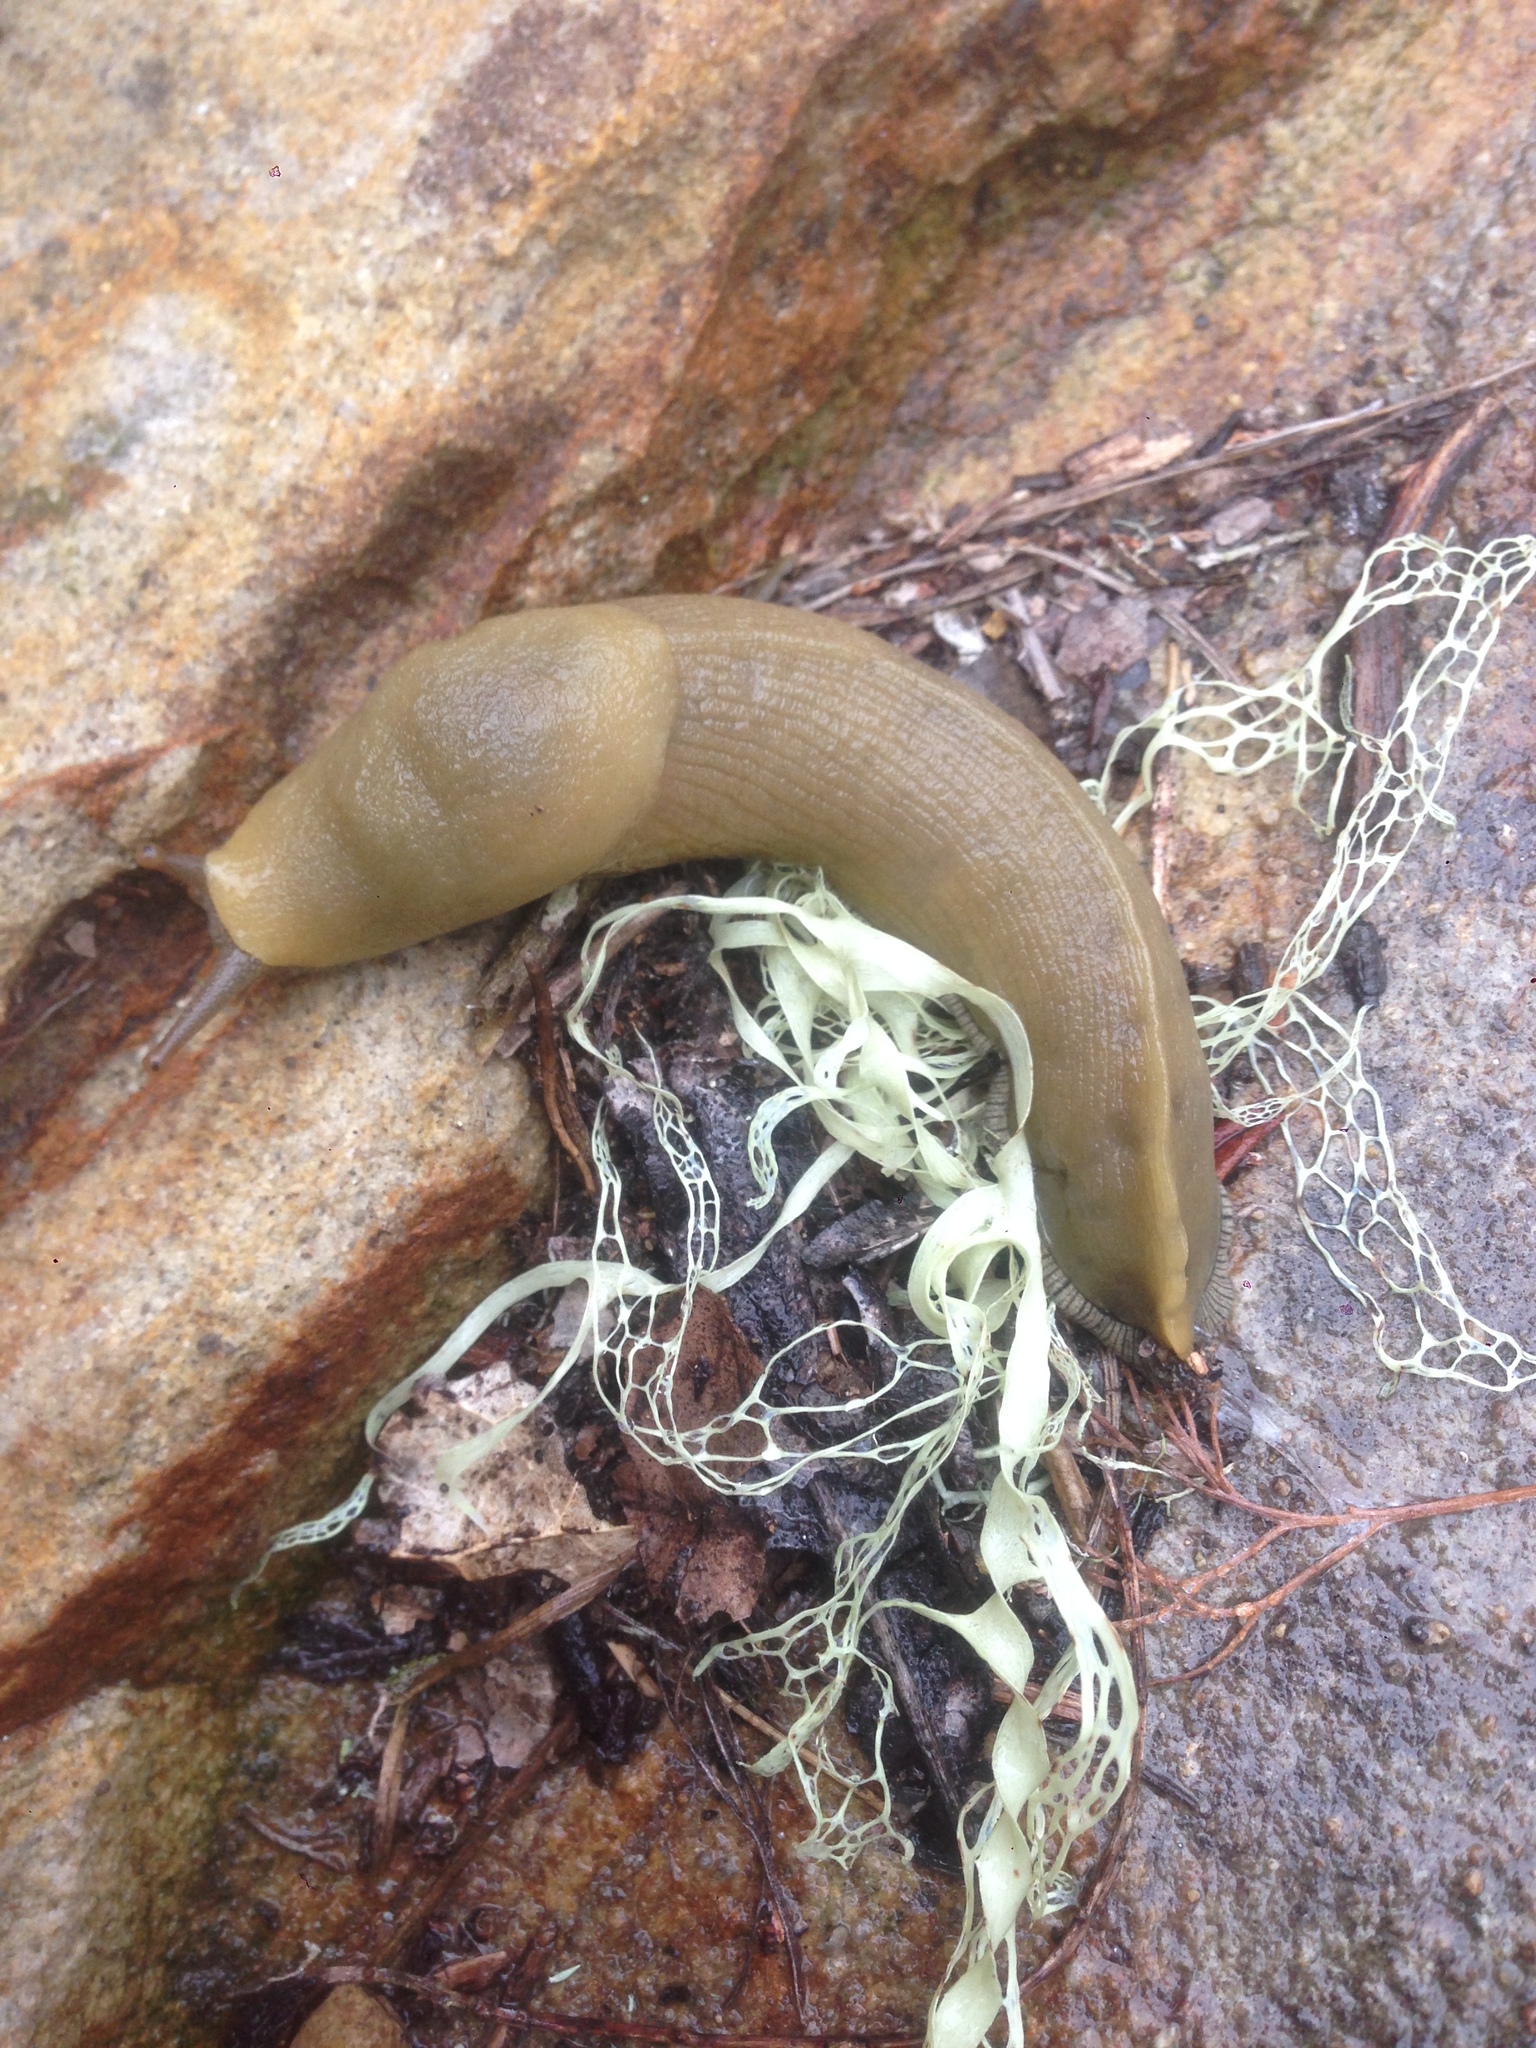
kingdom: Animalia
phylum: Mollusca
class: Gastropoda
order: Stylommatophora
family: Ariolimacidae
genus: Ariolimax
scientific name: Ariolimax stramineus
